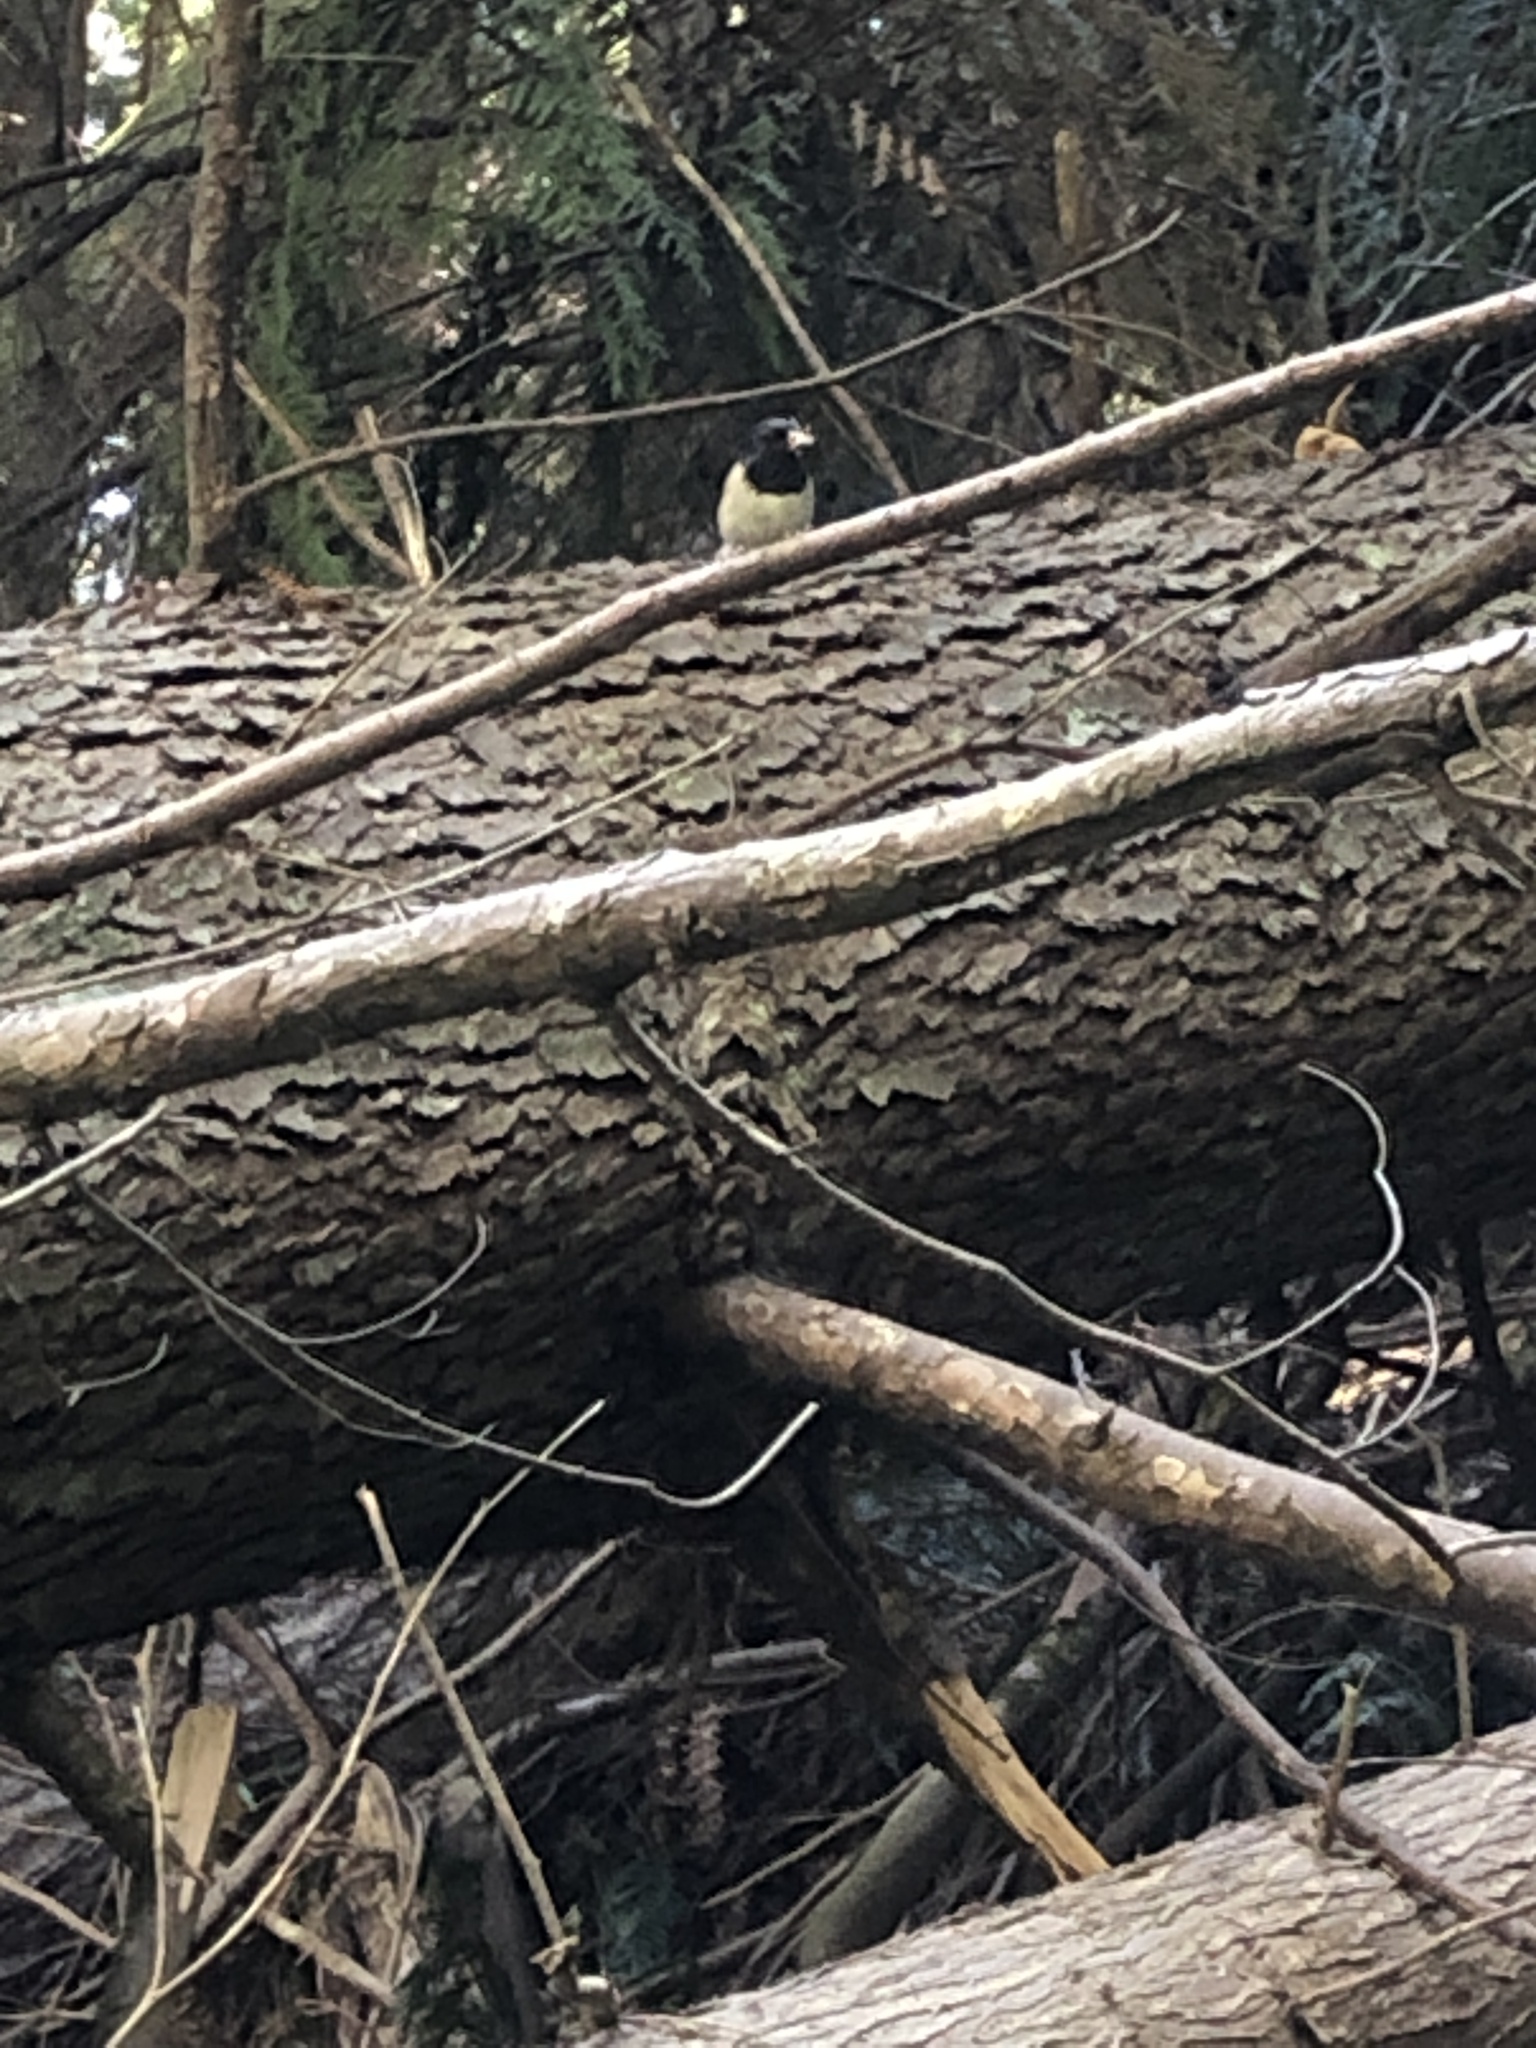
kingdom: Animalia
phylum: Chordata
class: Aves
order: Passeriformes
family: Passerellidae
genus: Junco
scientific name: Junco hyemalis
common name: Dark-eyed junco
